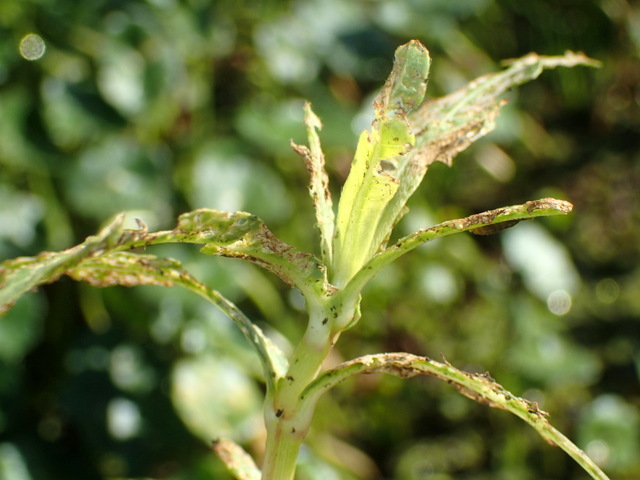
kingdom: Animalia
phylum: Arthropoda
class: Insecta
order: Coleoptera
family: Chrysomelidae
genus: Agasicles
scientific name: Agasicles hygrophila
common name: Alligatorweed flea beetle
